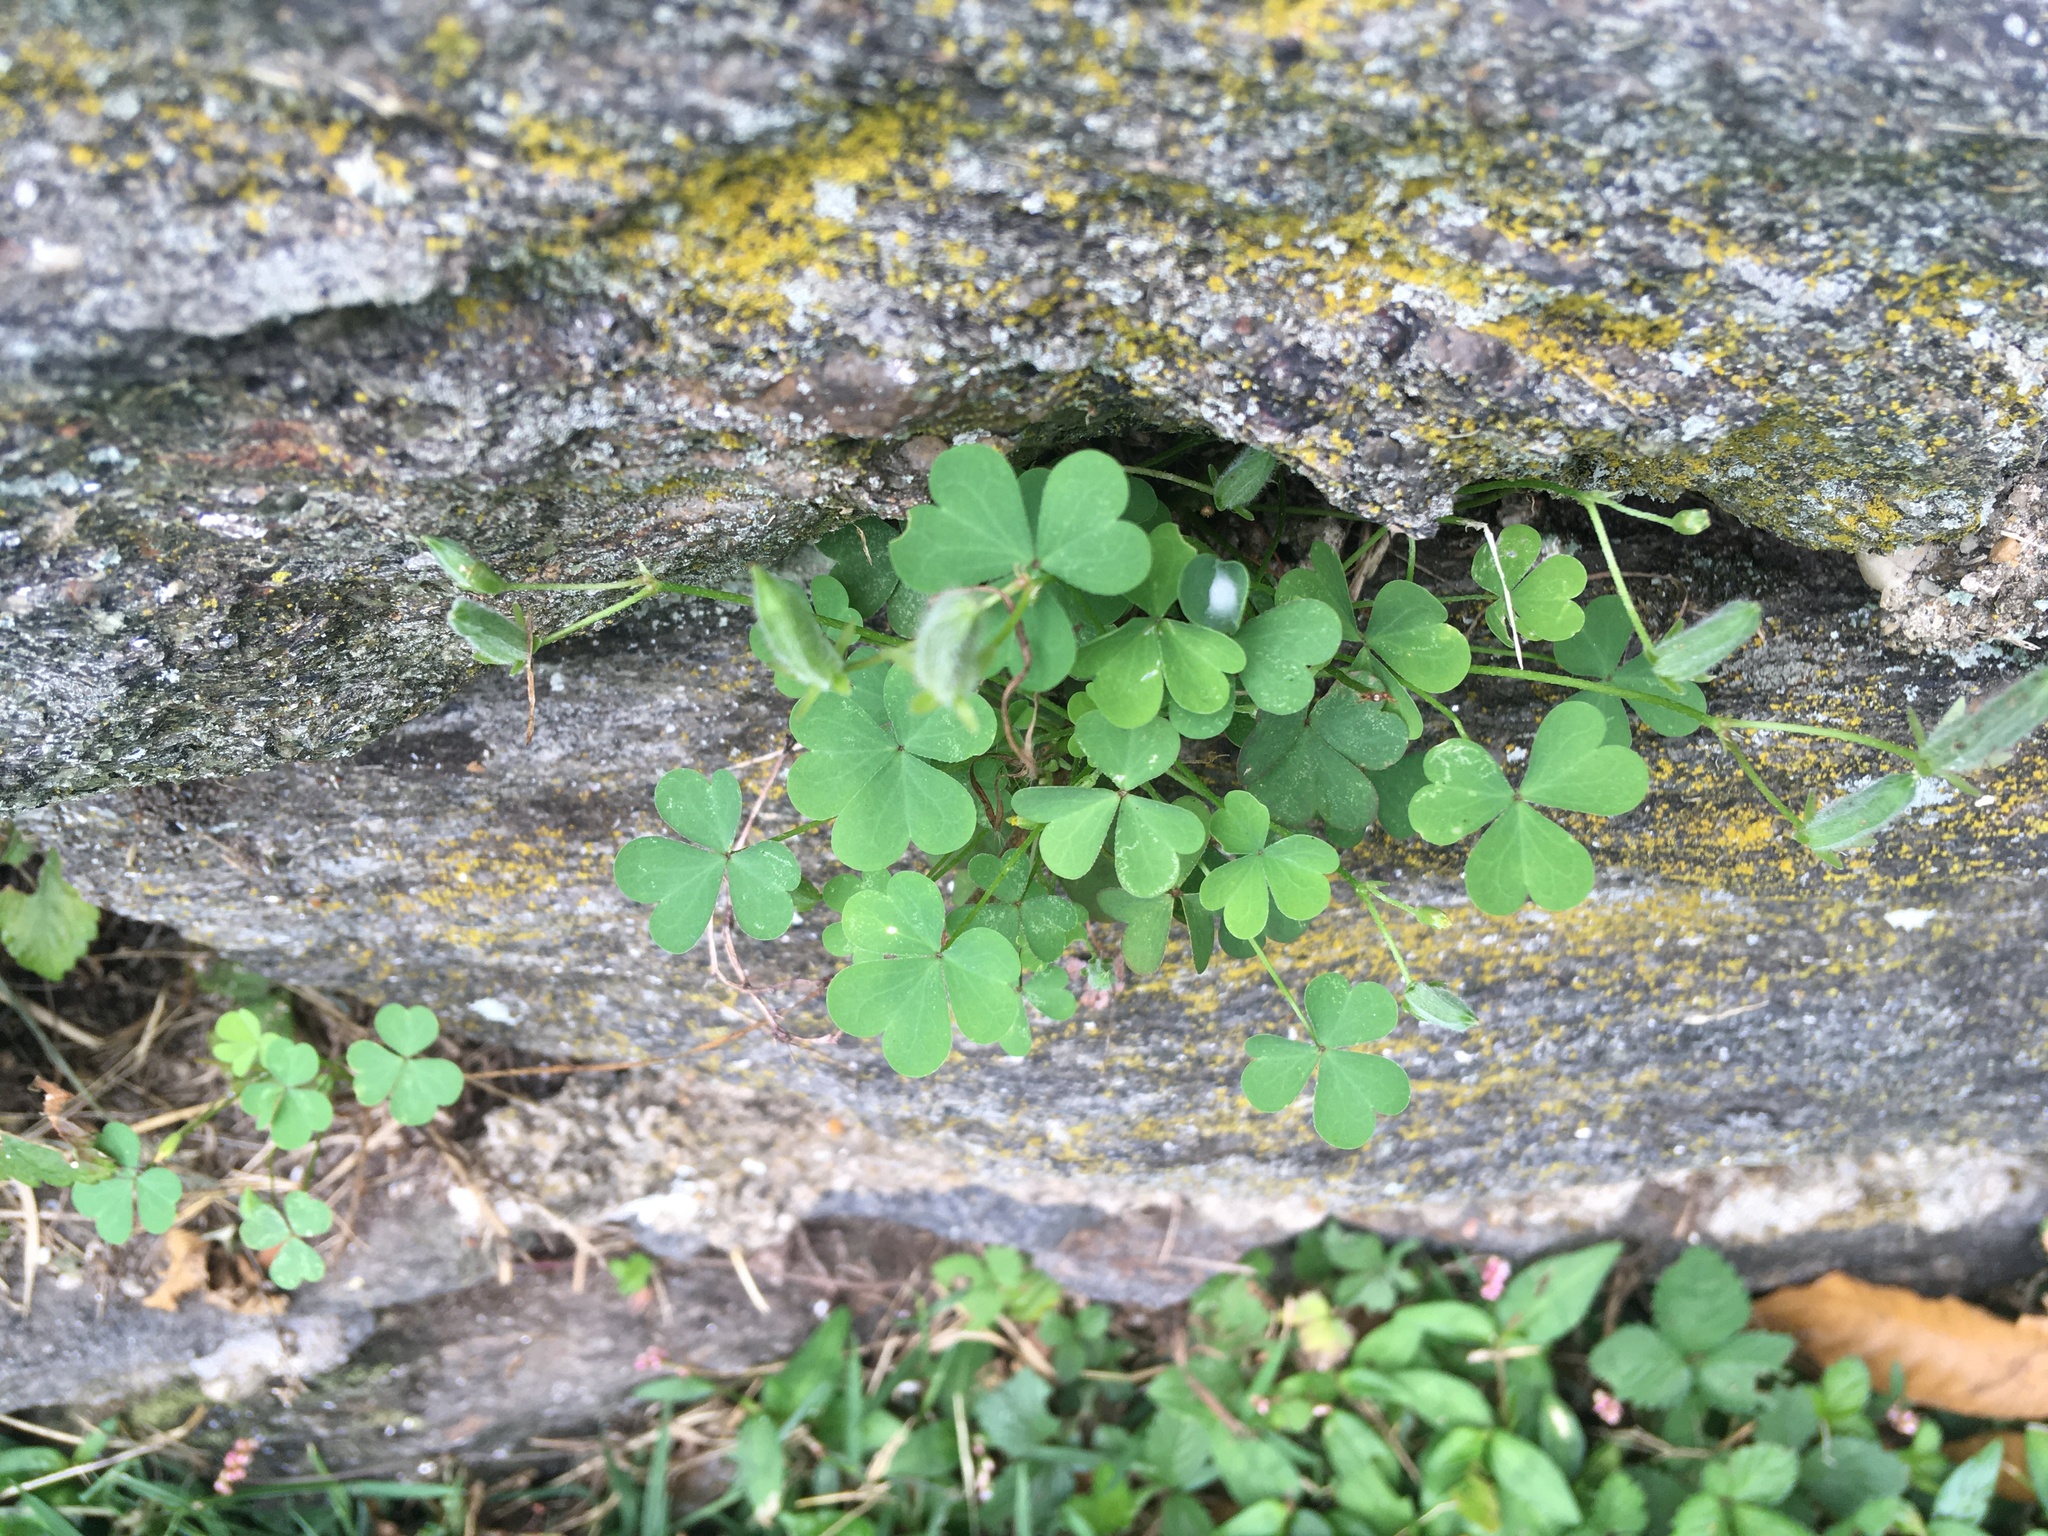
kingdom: Plantae
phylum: Tracheophyta
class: Magnoliopsida
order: Oxalidales
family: Oxalidaceae
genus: Oxalis
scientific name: Oxalis corniculata
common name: Procumbent yellow-sorrel
